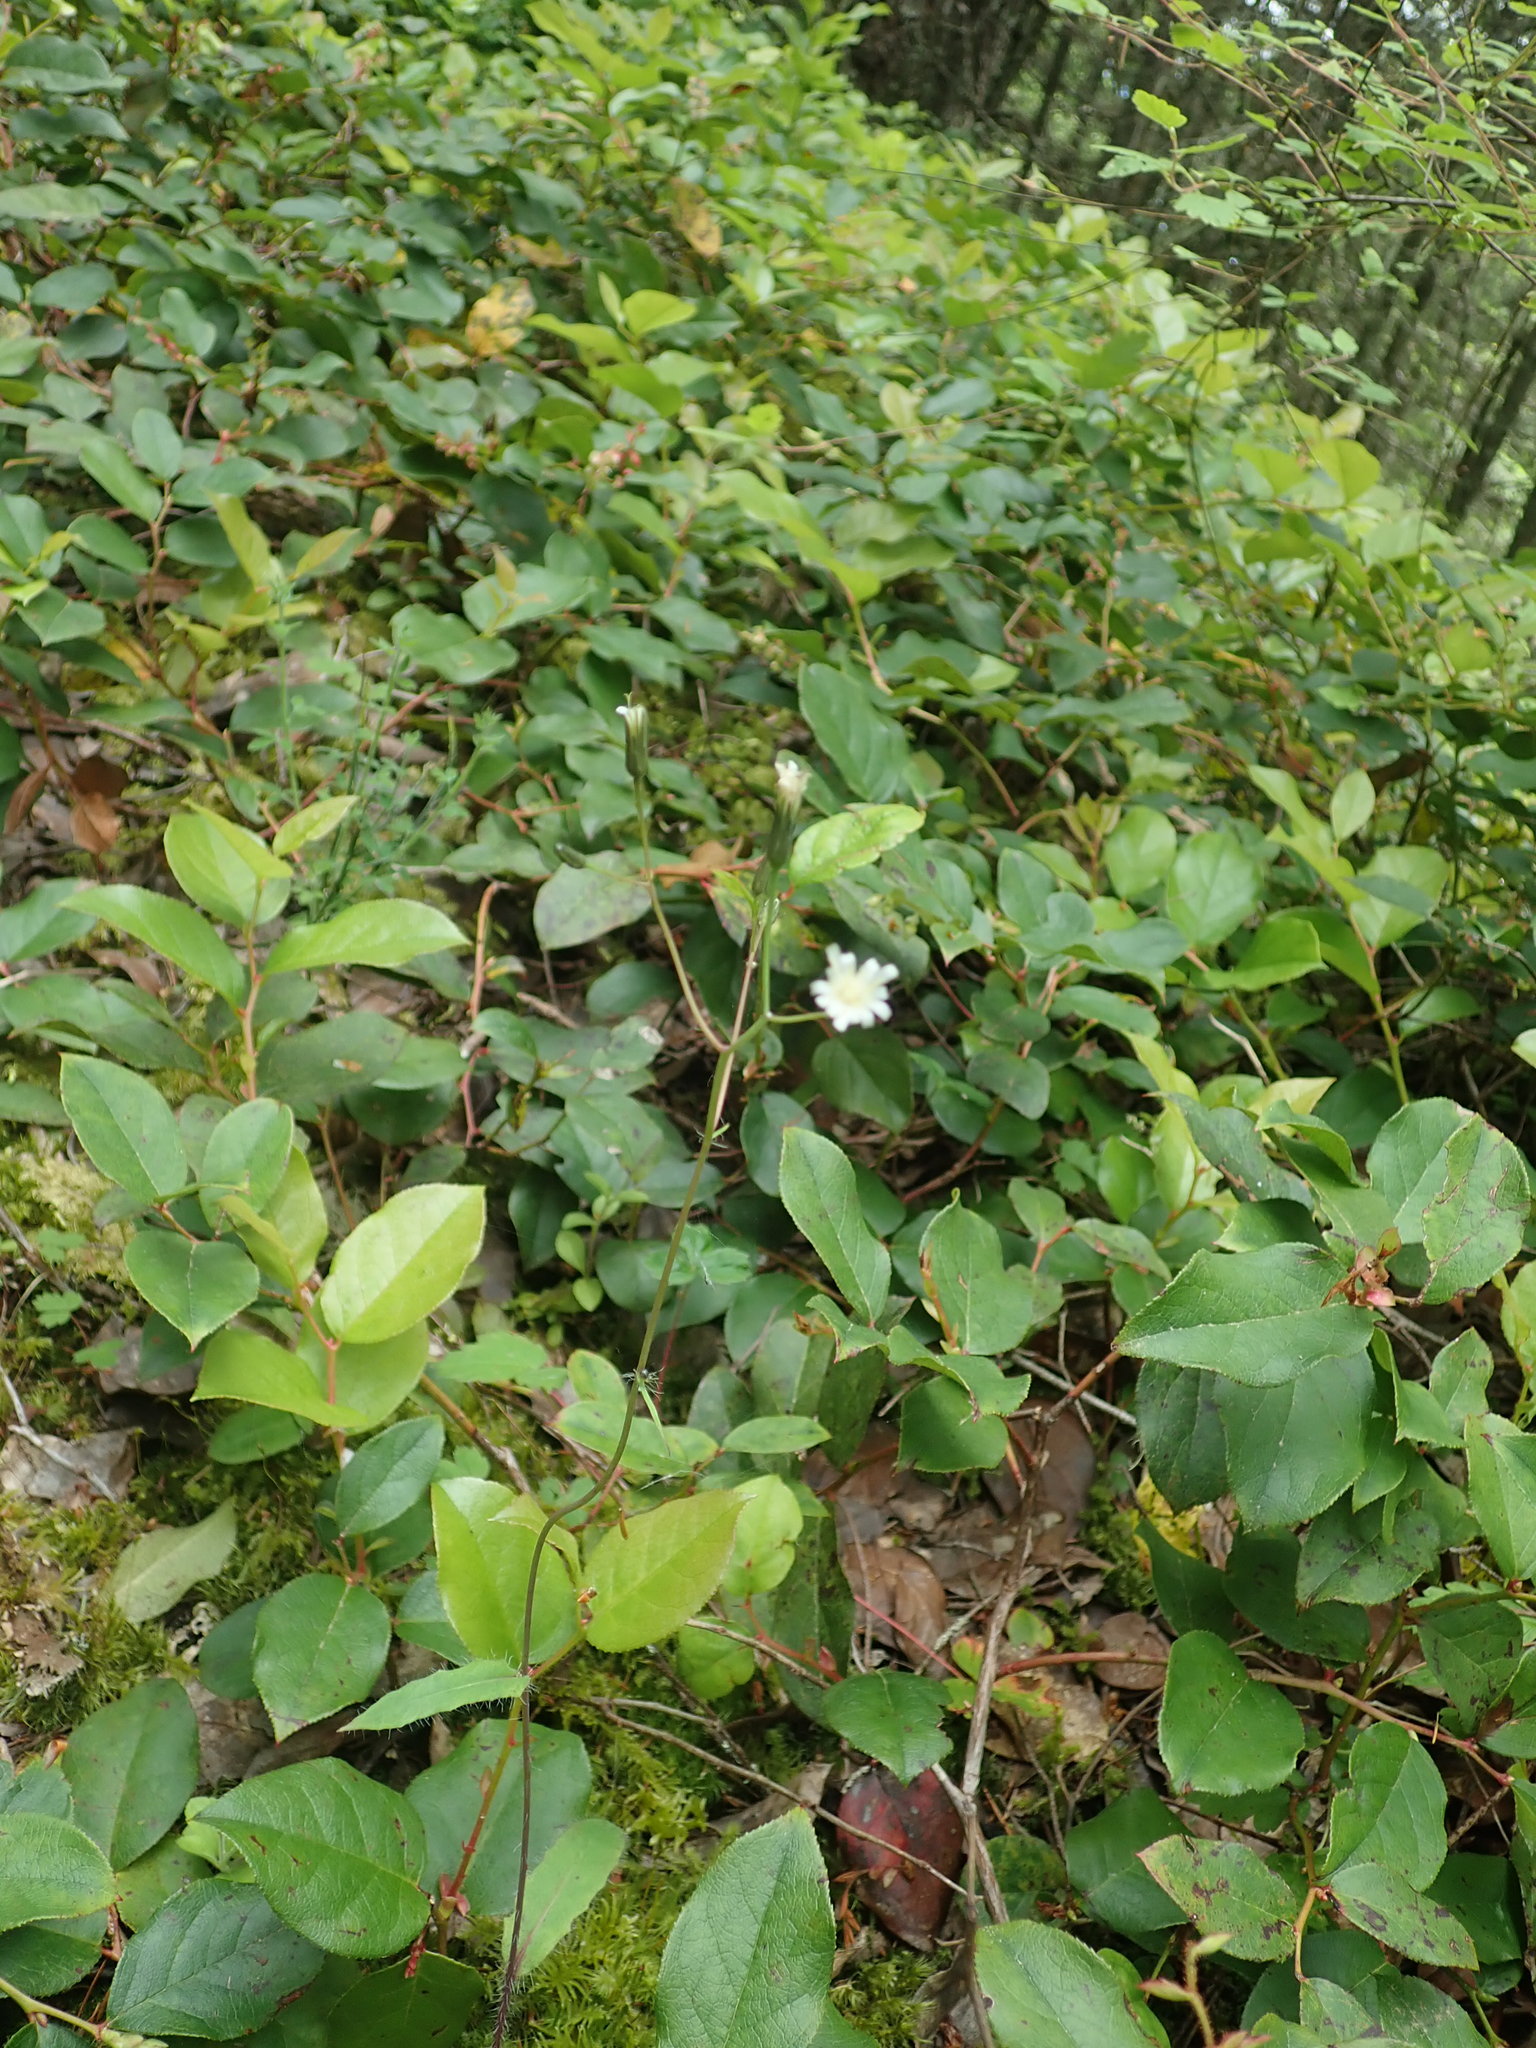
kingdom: Plantae
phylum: Tracheophyta
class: Magnoliopsida
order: Asterales
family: Asteraceae
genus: Hieracium
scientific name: Hieracium albiflorum
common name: White hawkweed
